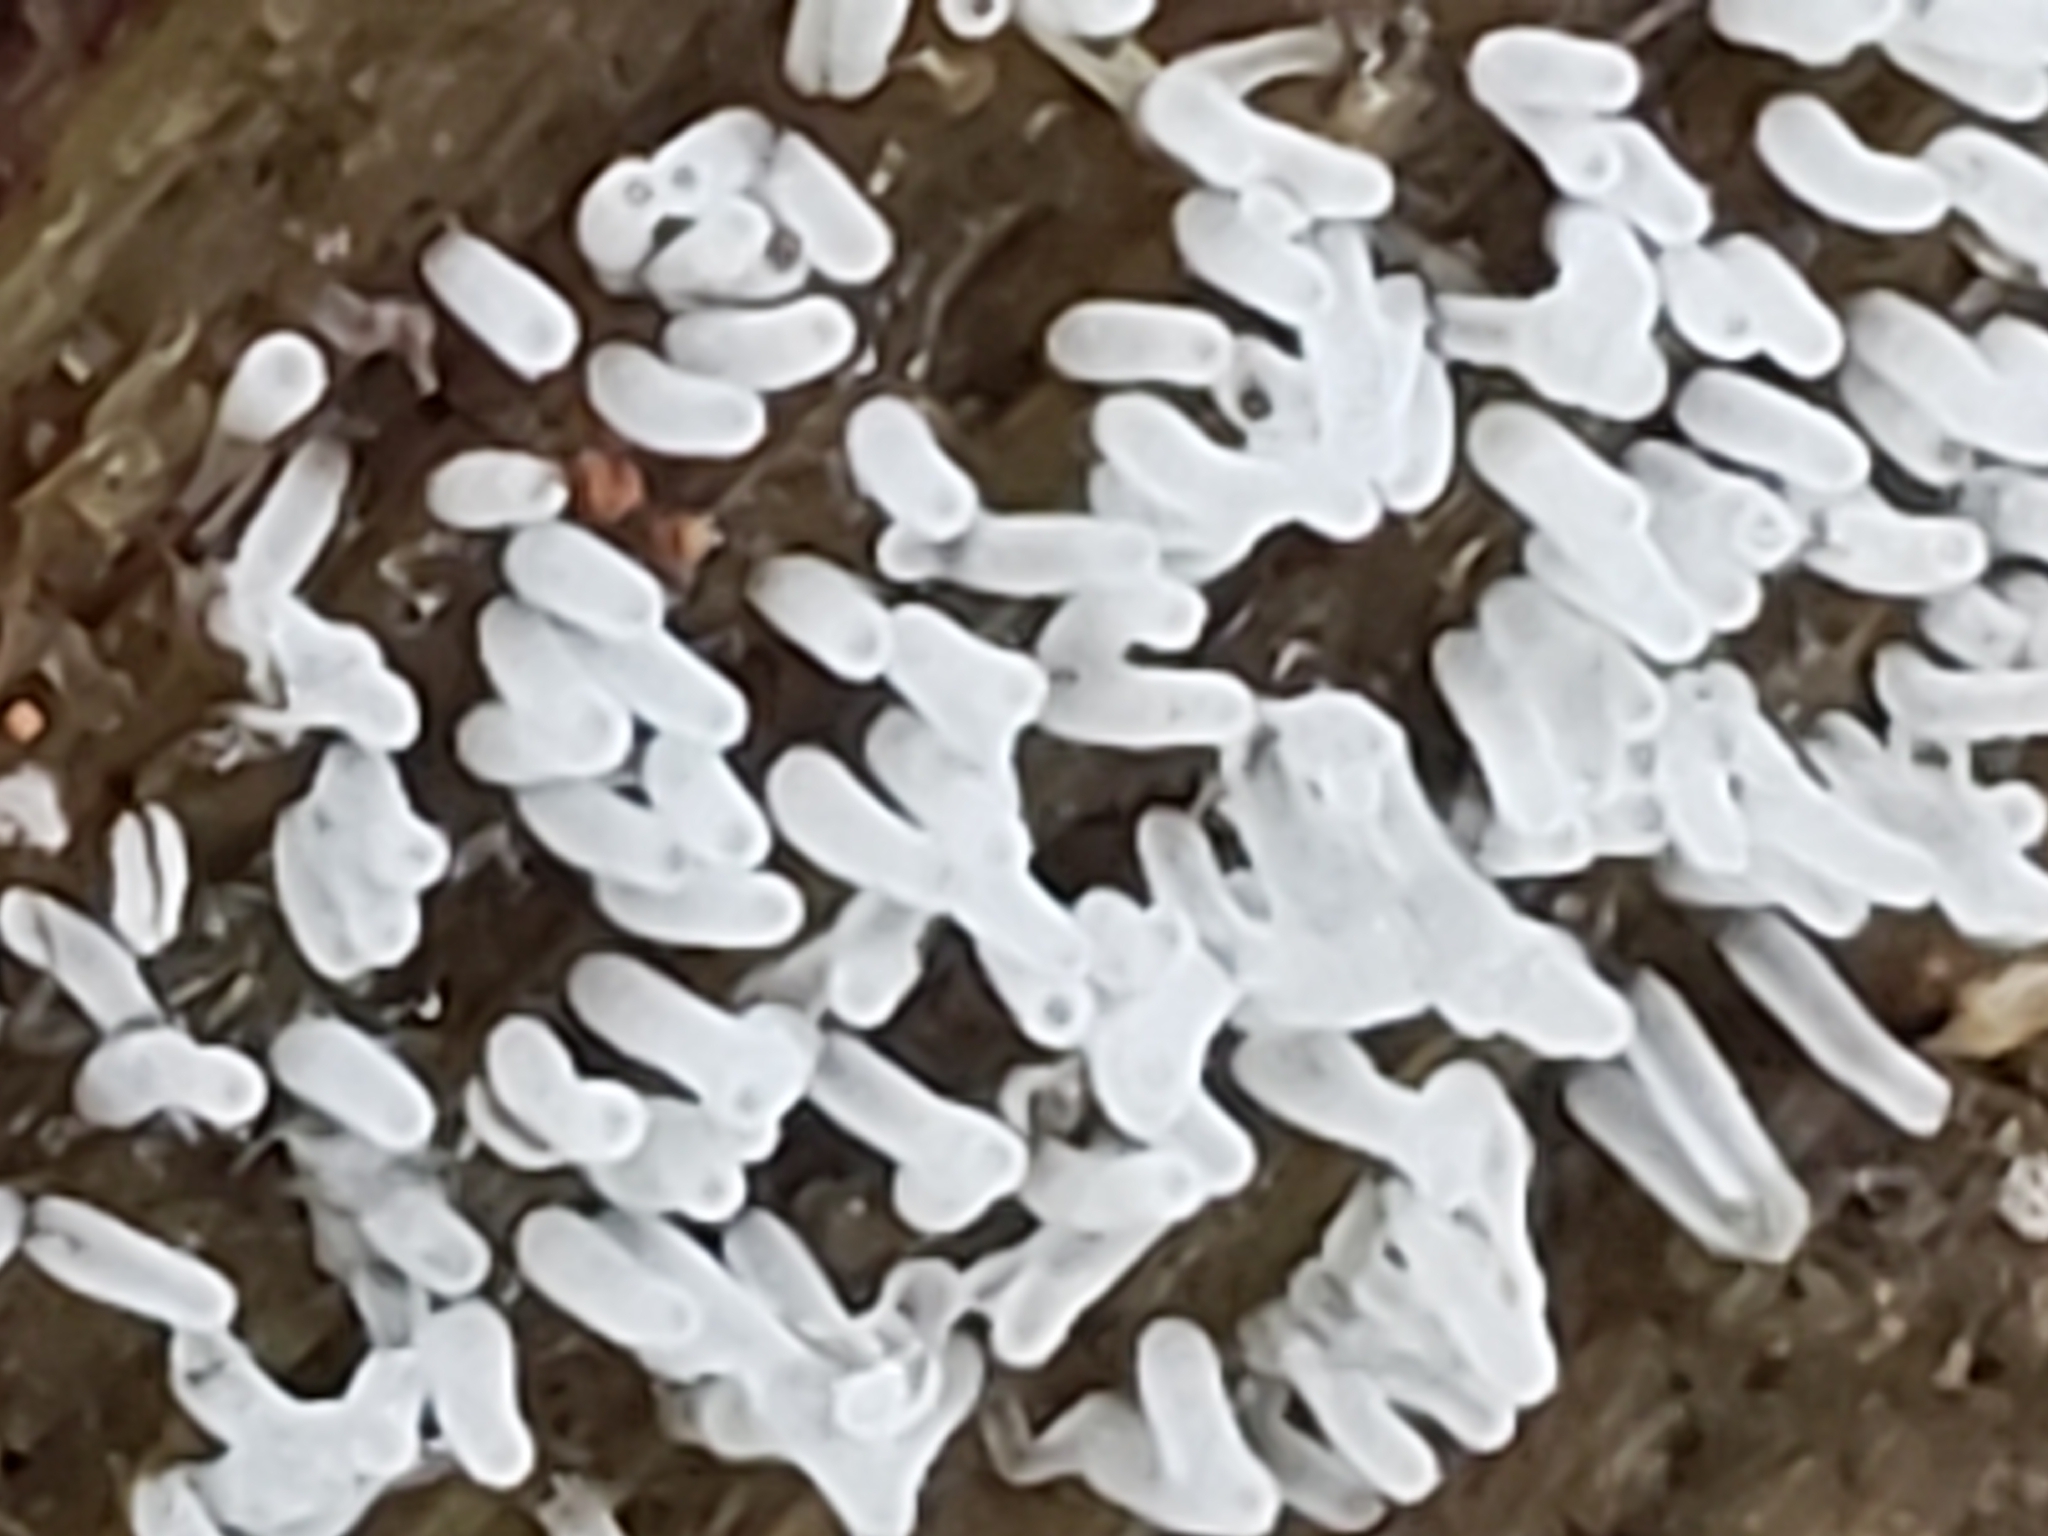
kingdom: Protozoa
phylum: Mycetozoa
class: Protosteliomycetes
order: Ceratiomyxales
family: Ceratiomyxaceae
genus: Ceratiomyxa
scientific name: Ceratiomyxa fruticulosa
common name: Honeycomb coral slime mold
